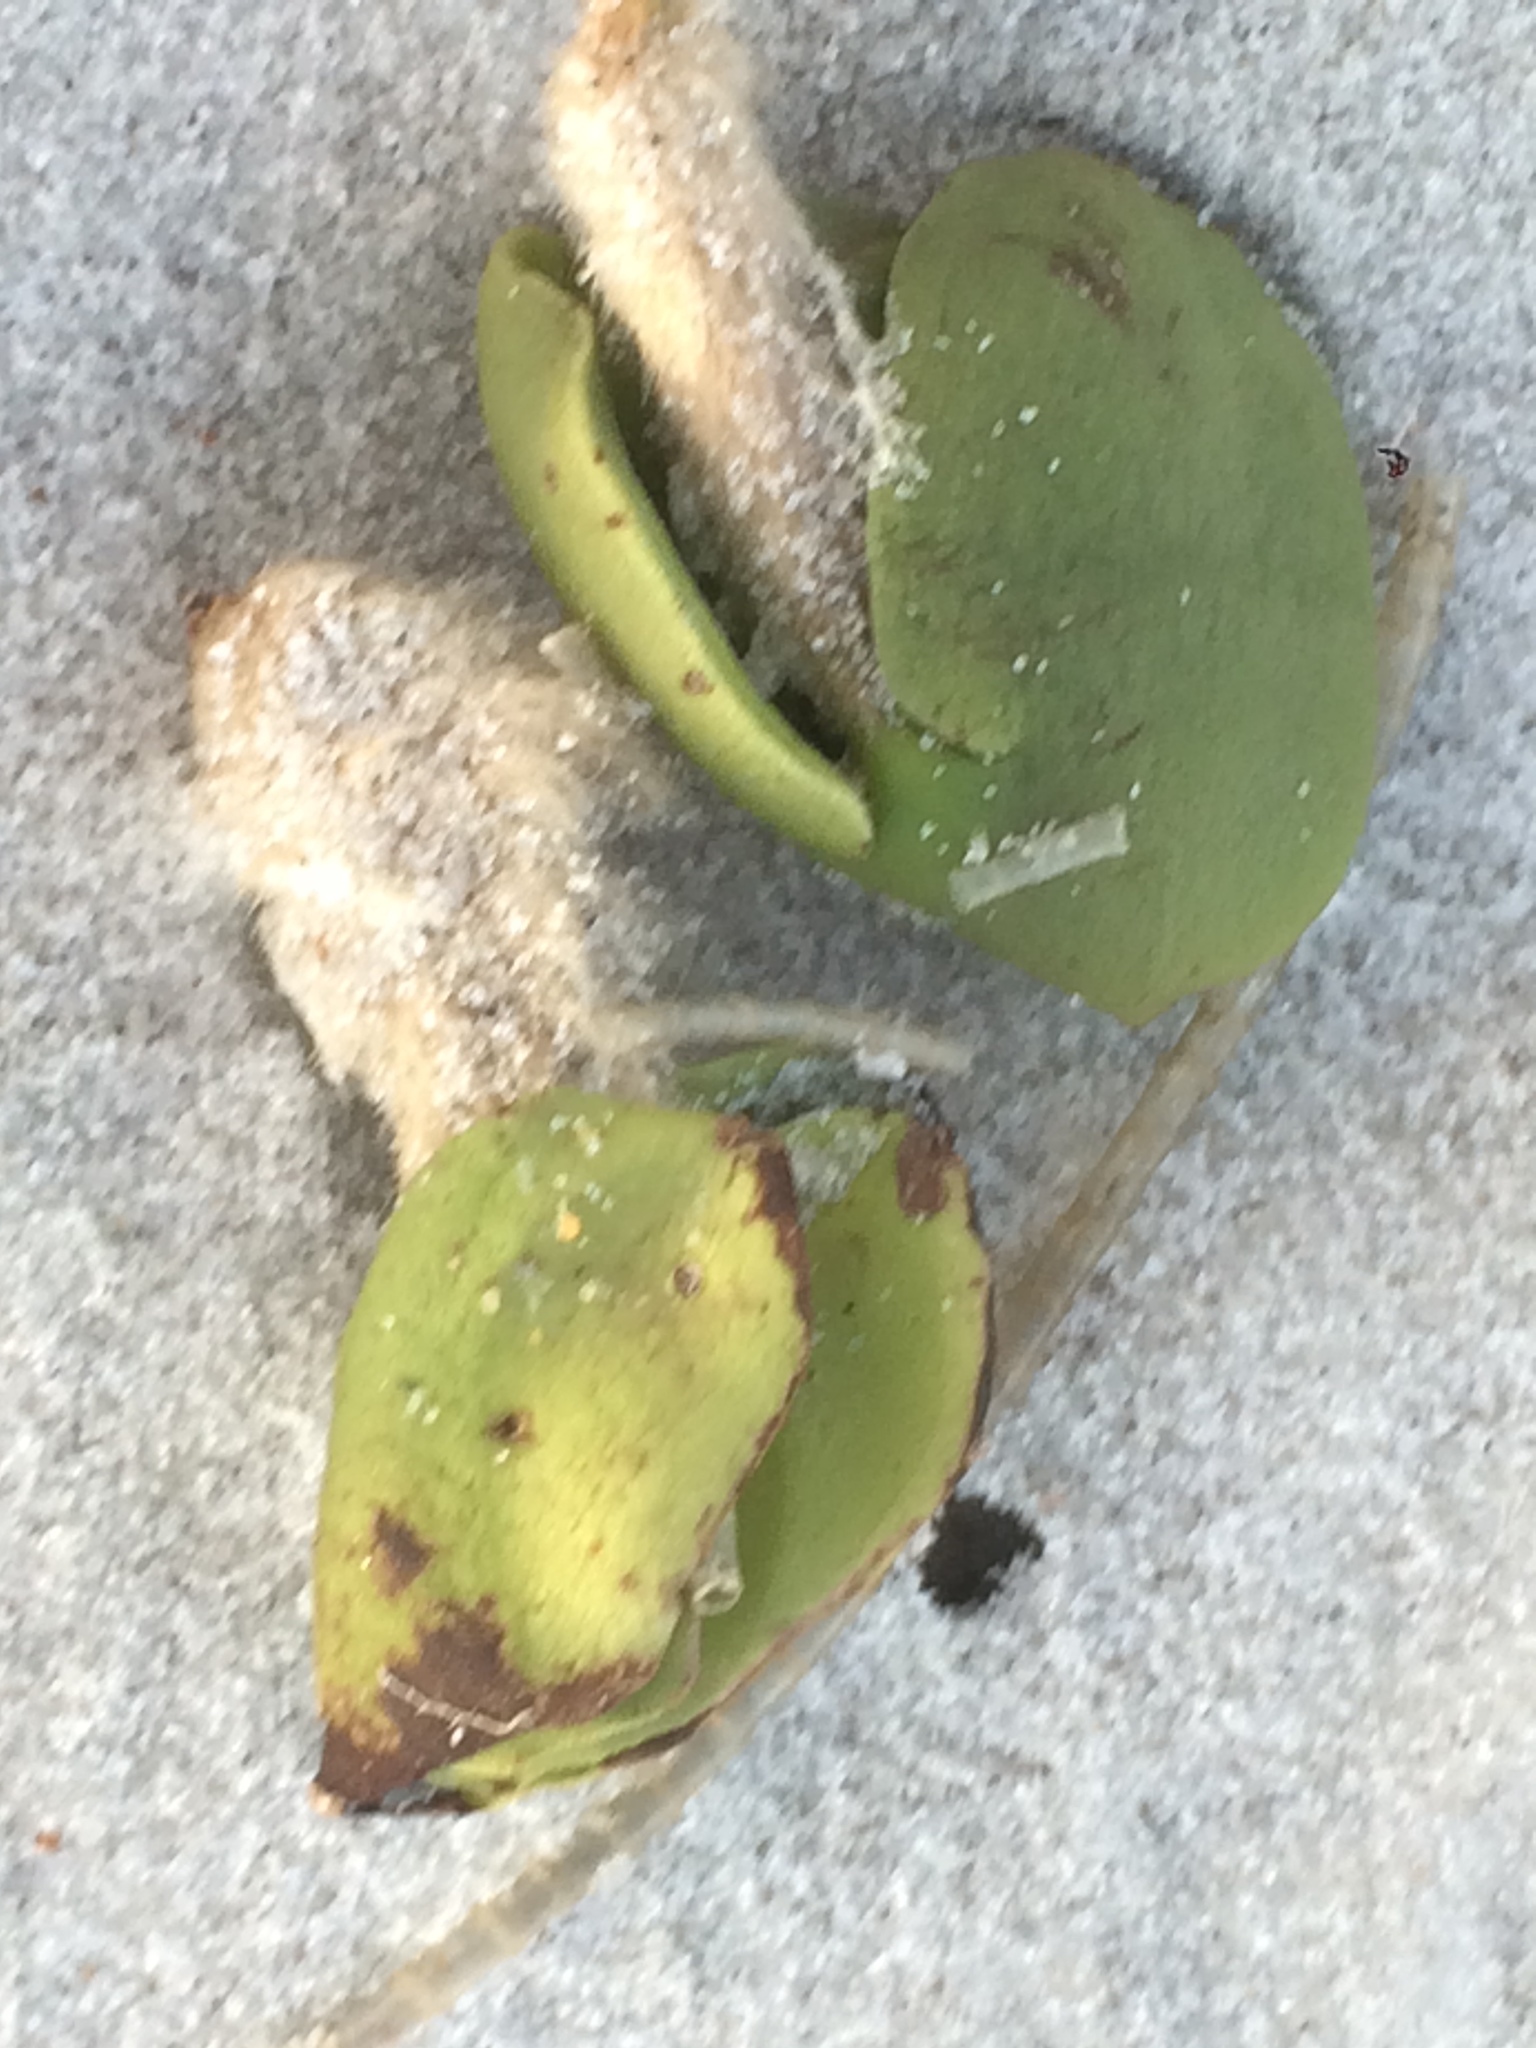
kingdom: Plantae
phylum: Tracheophyta
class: Magnoliopsida
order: Lamiales
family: Acanthaceae
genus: Avicennia
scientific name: Avicennia germinans
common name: Black mangrove
